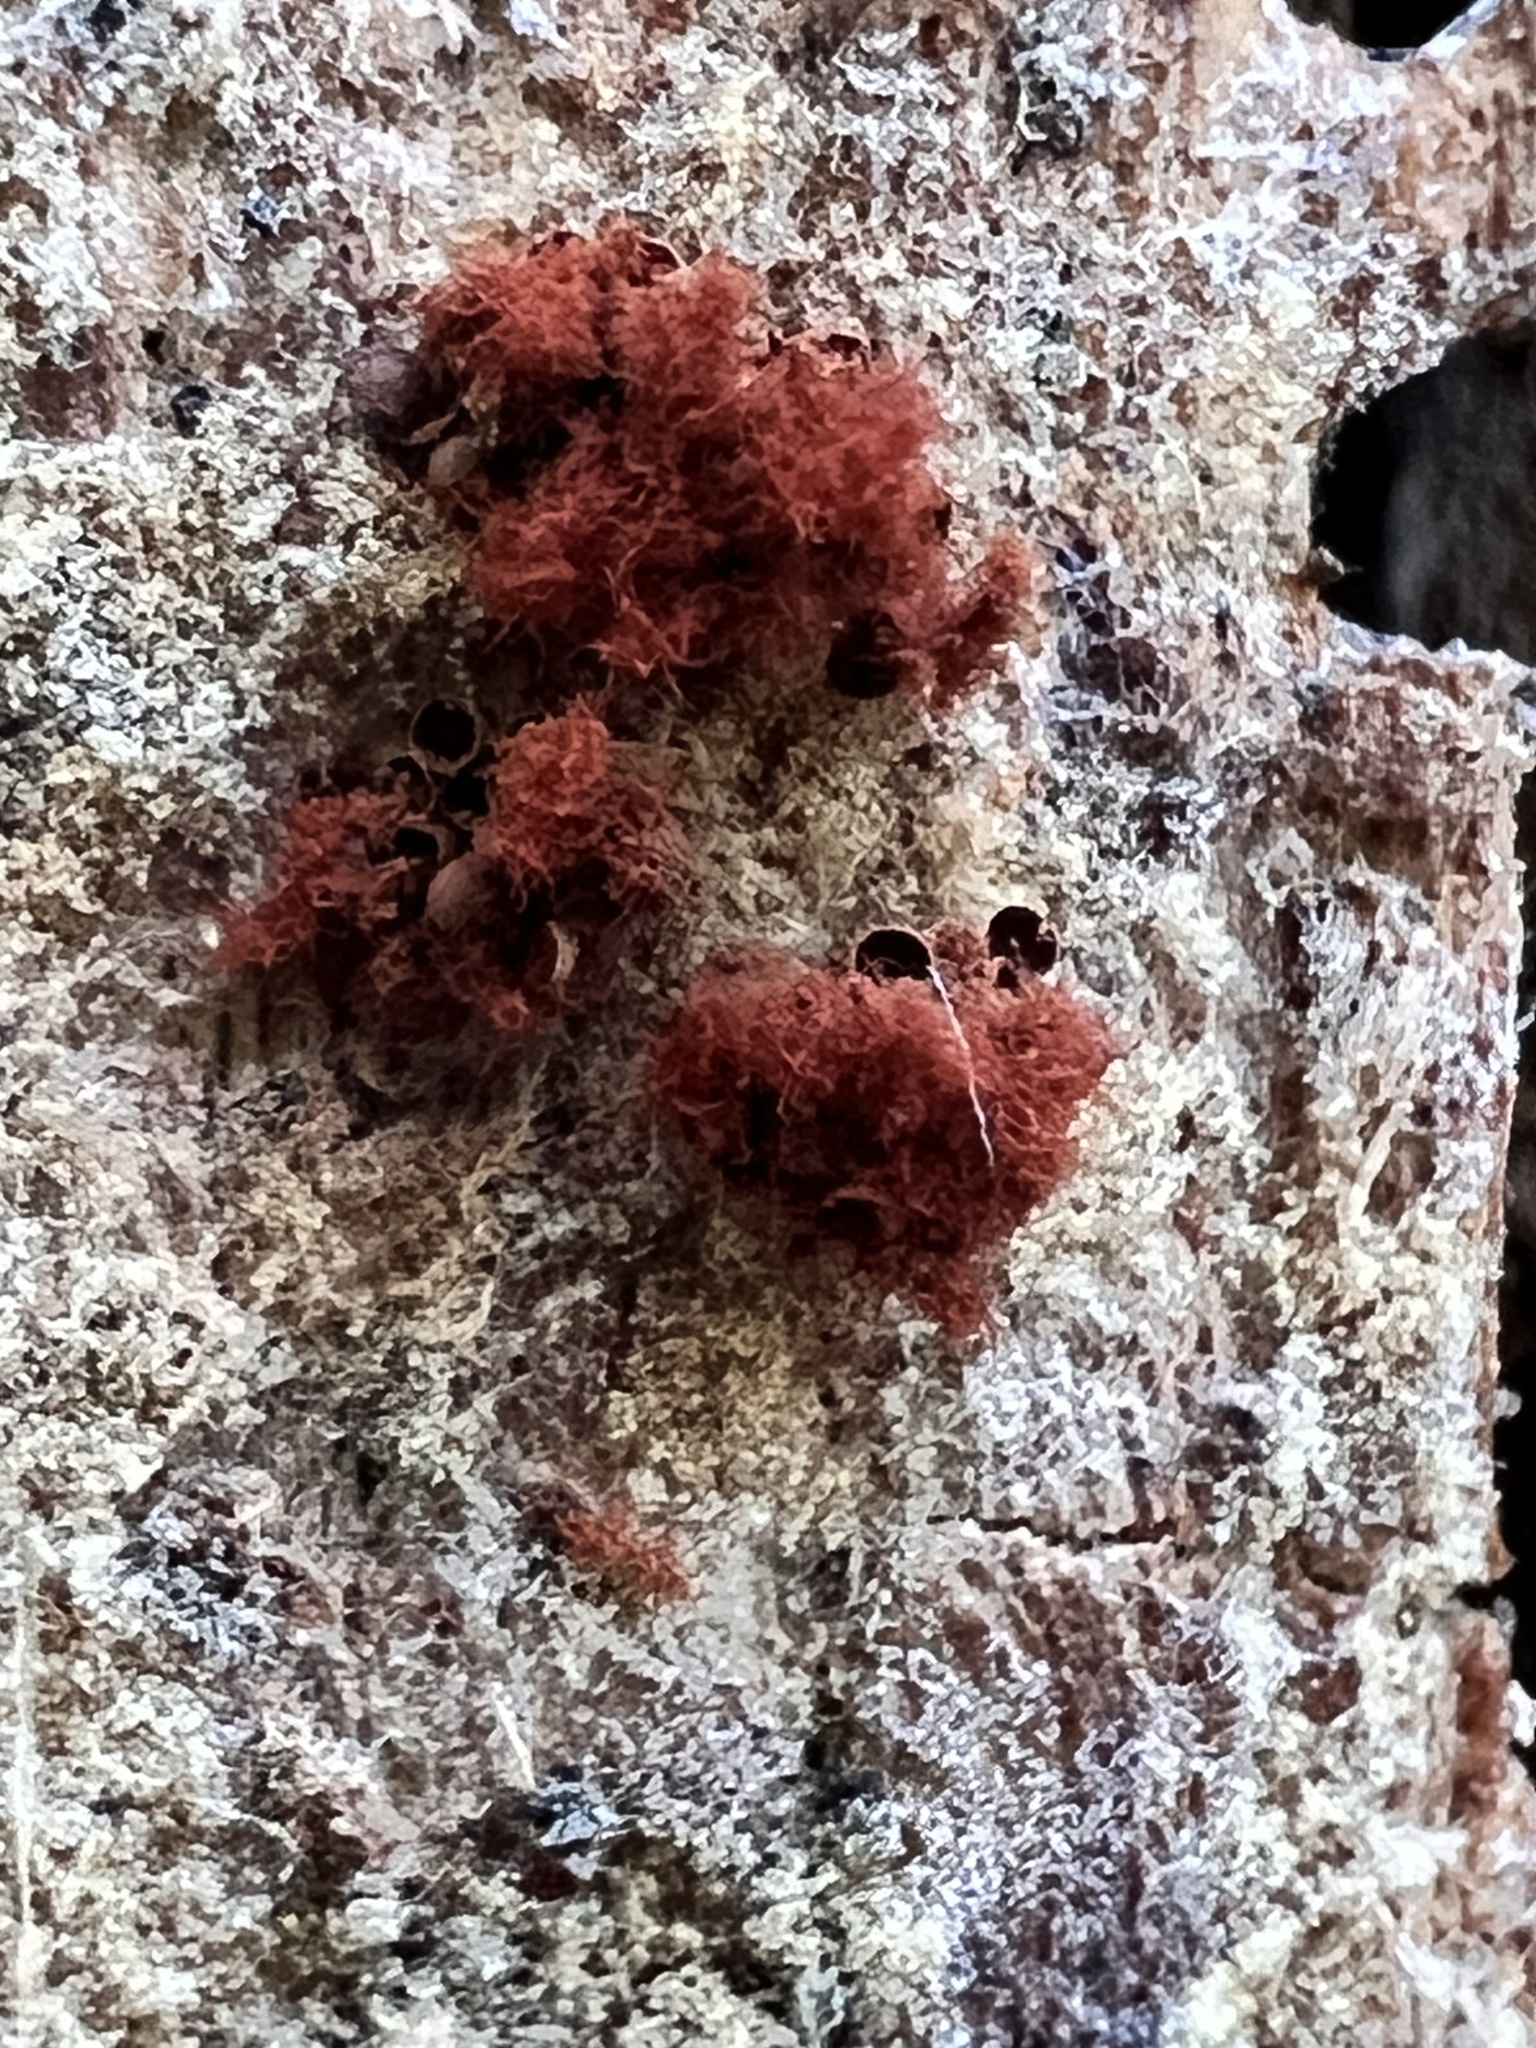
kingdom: Protozoa
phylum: Mycetozoa
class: Myxomycetes
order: Trichiales
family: Trichiaceae
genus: Metatrichia
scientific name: Metatrichia vesparia
